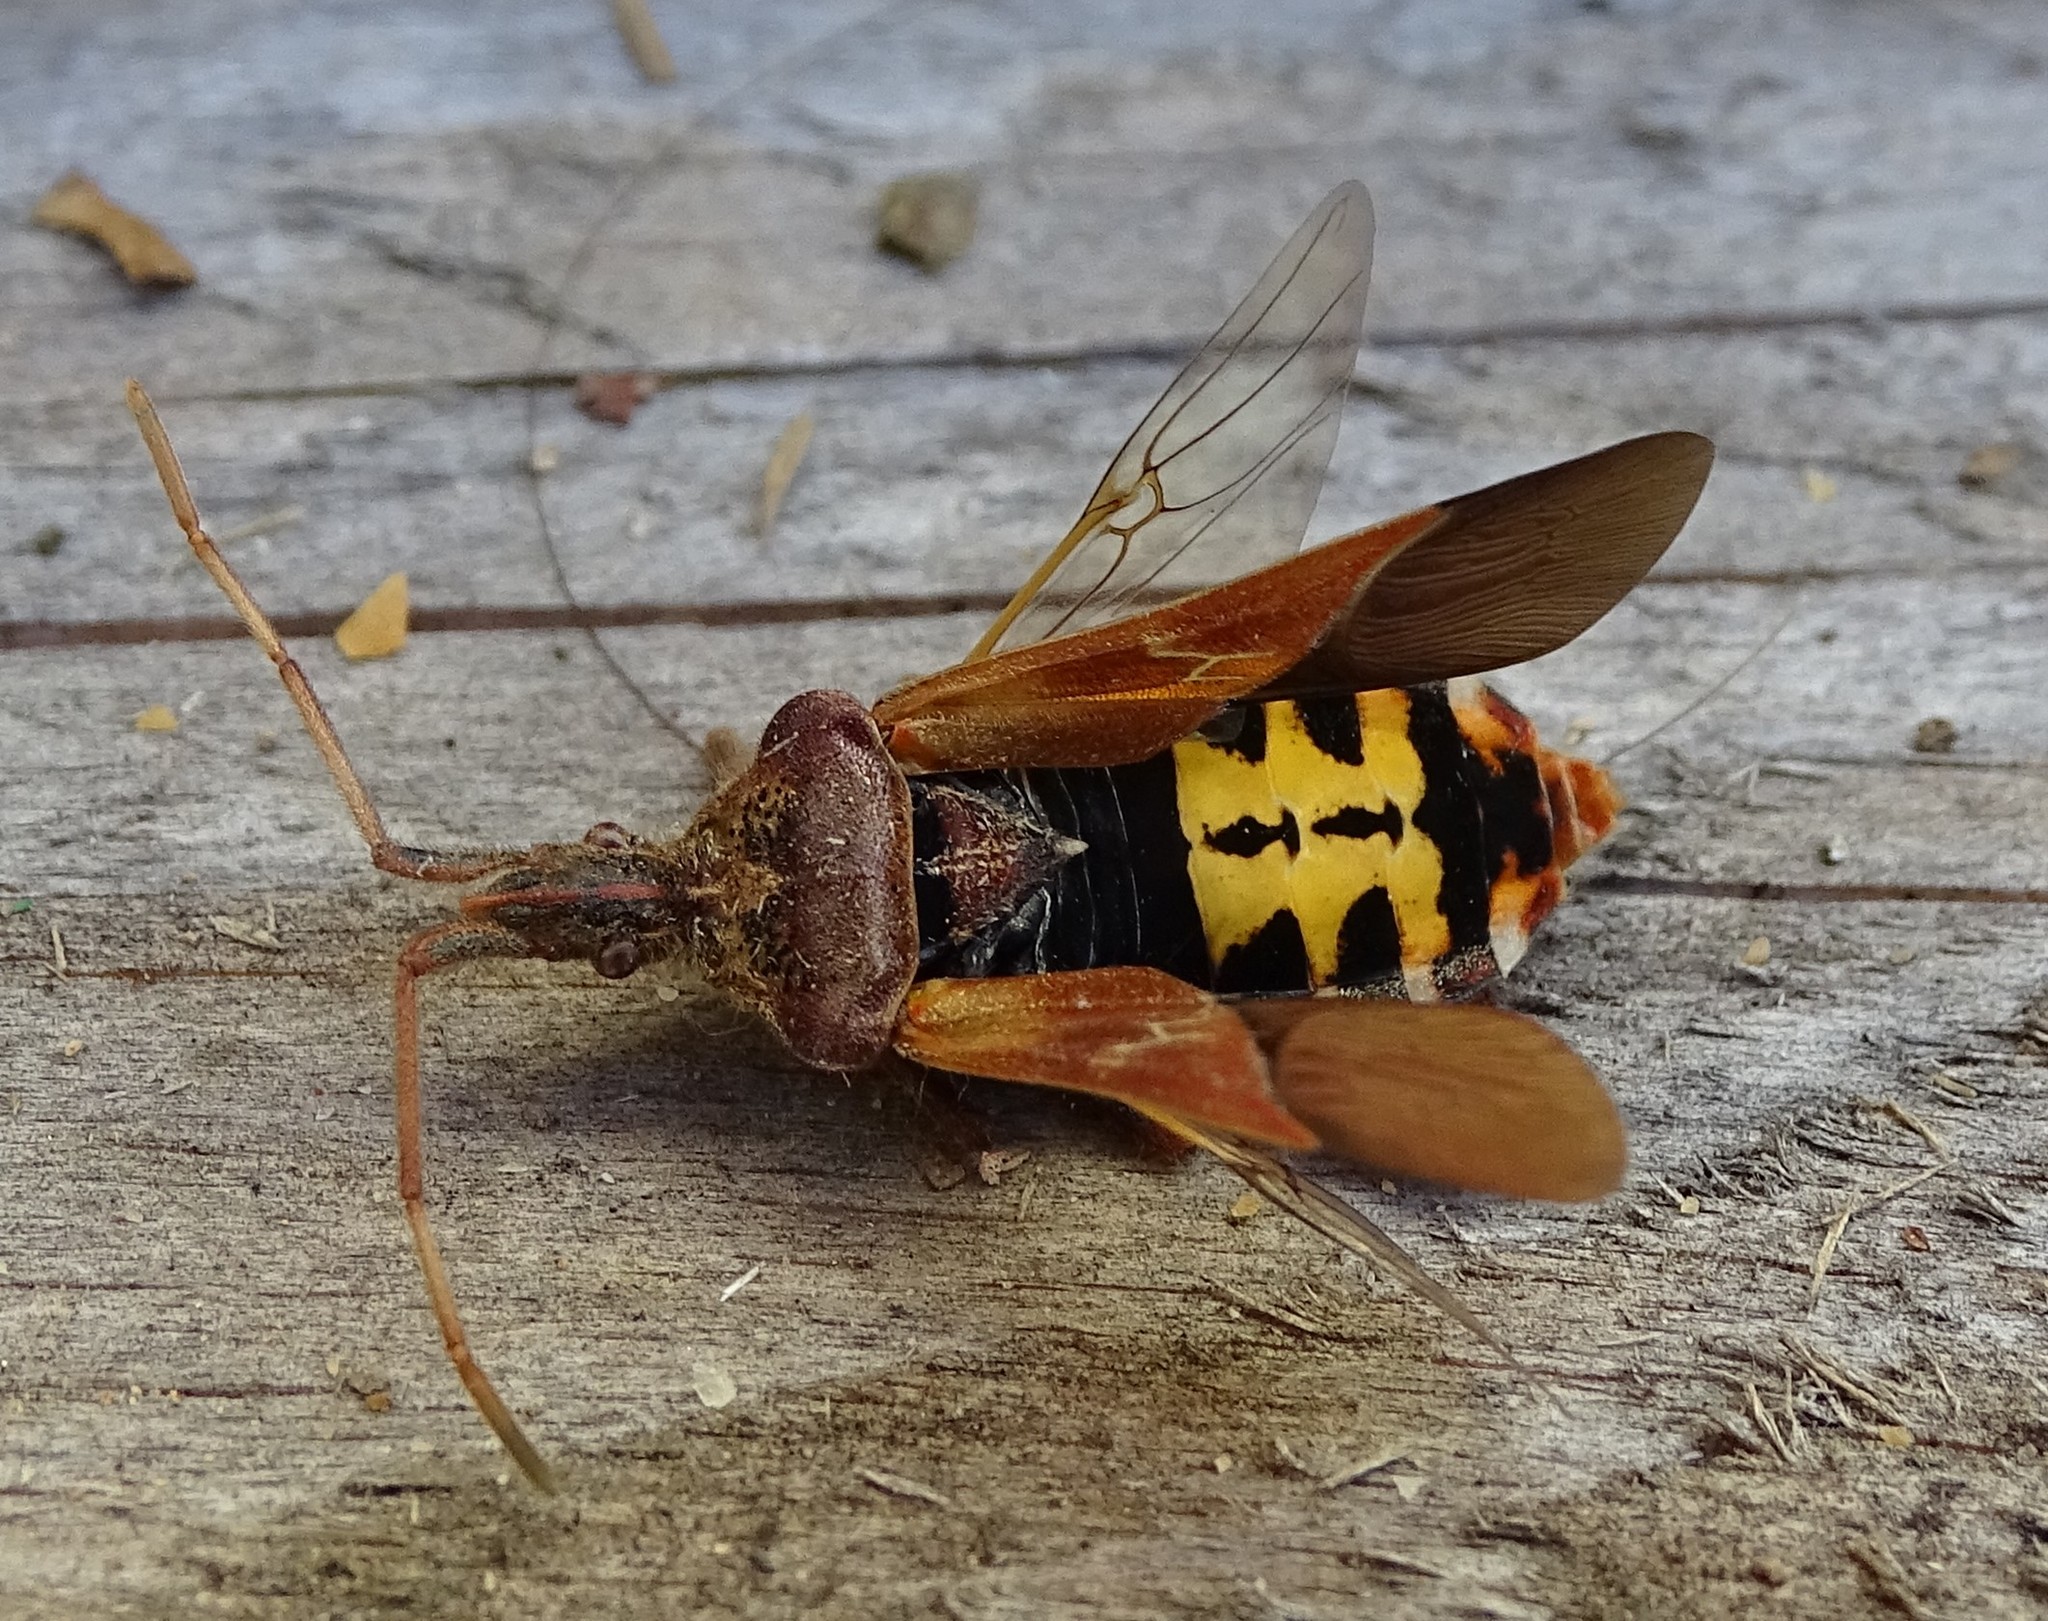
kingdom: Animalia
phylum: Arthropoda
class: Insecta
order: Hemiptera
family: Coreidae
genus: Leptoglossus
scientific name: Leptoglossus occidentalis
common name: Western conifer-seed bug
